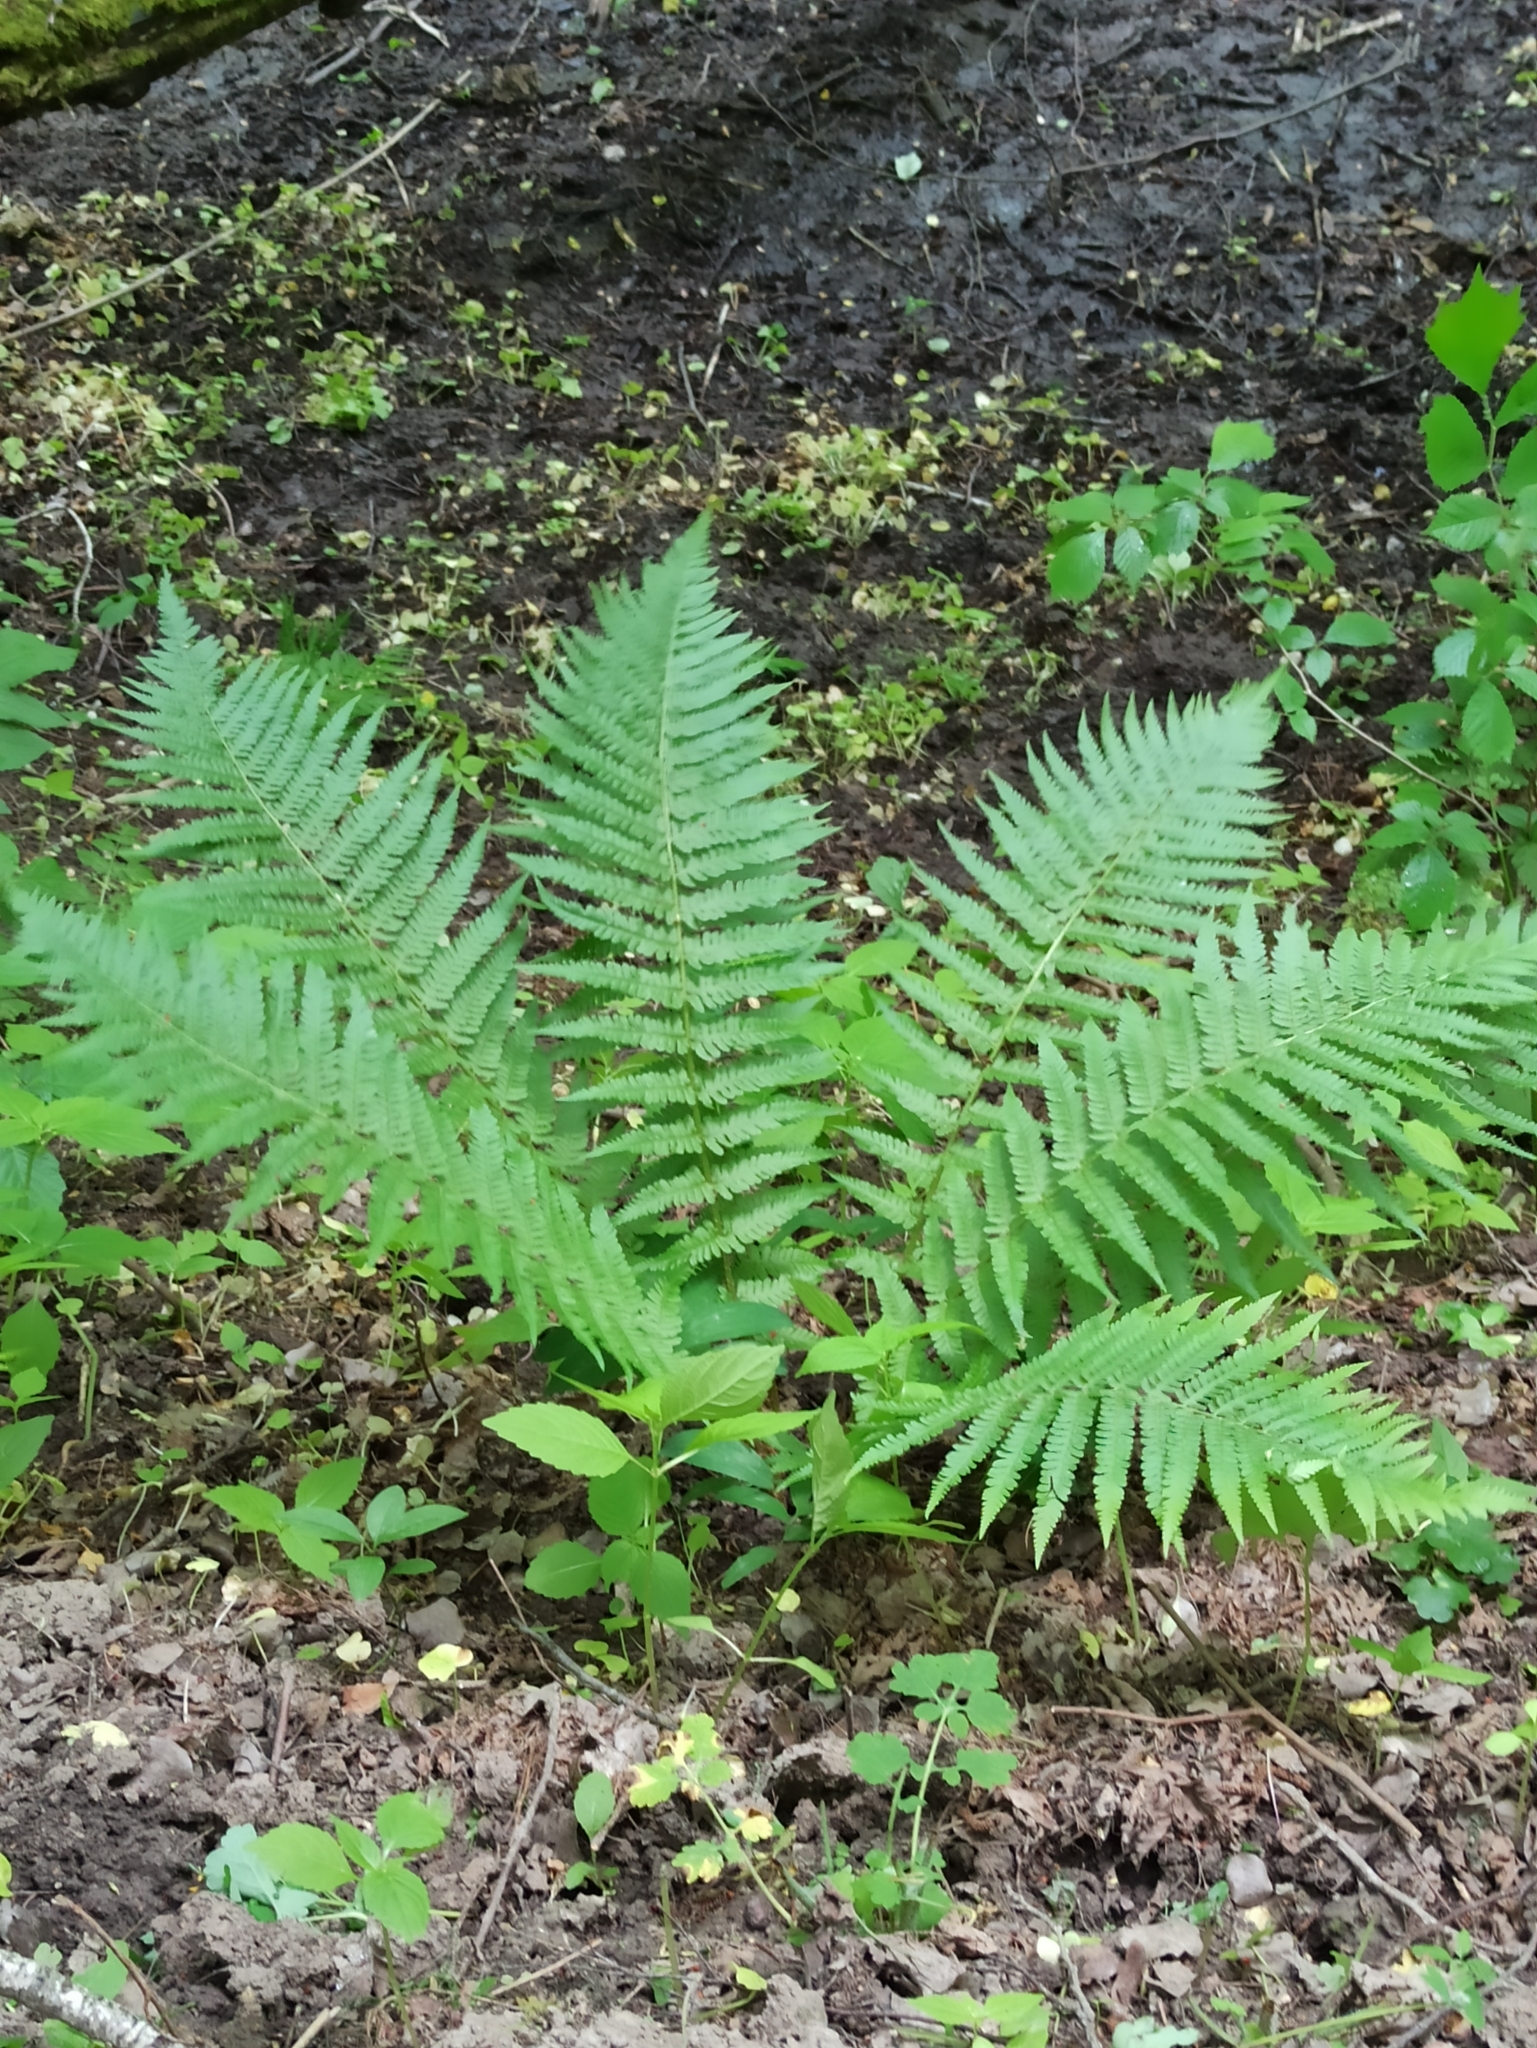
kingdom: Plantae
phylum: Tracheophyta
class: Polypodiopsida
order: Polypodiales
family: Dryopteridaceae
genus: Dryopteris
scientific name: Dryopteris filix-mas
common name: Male fern
